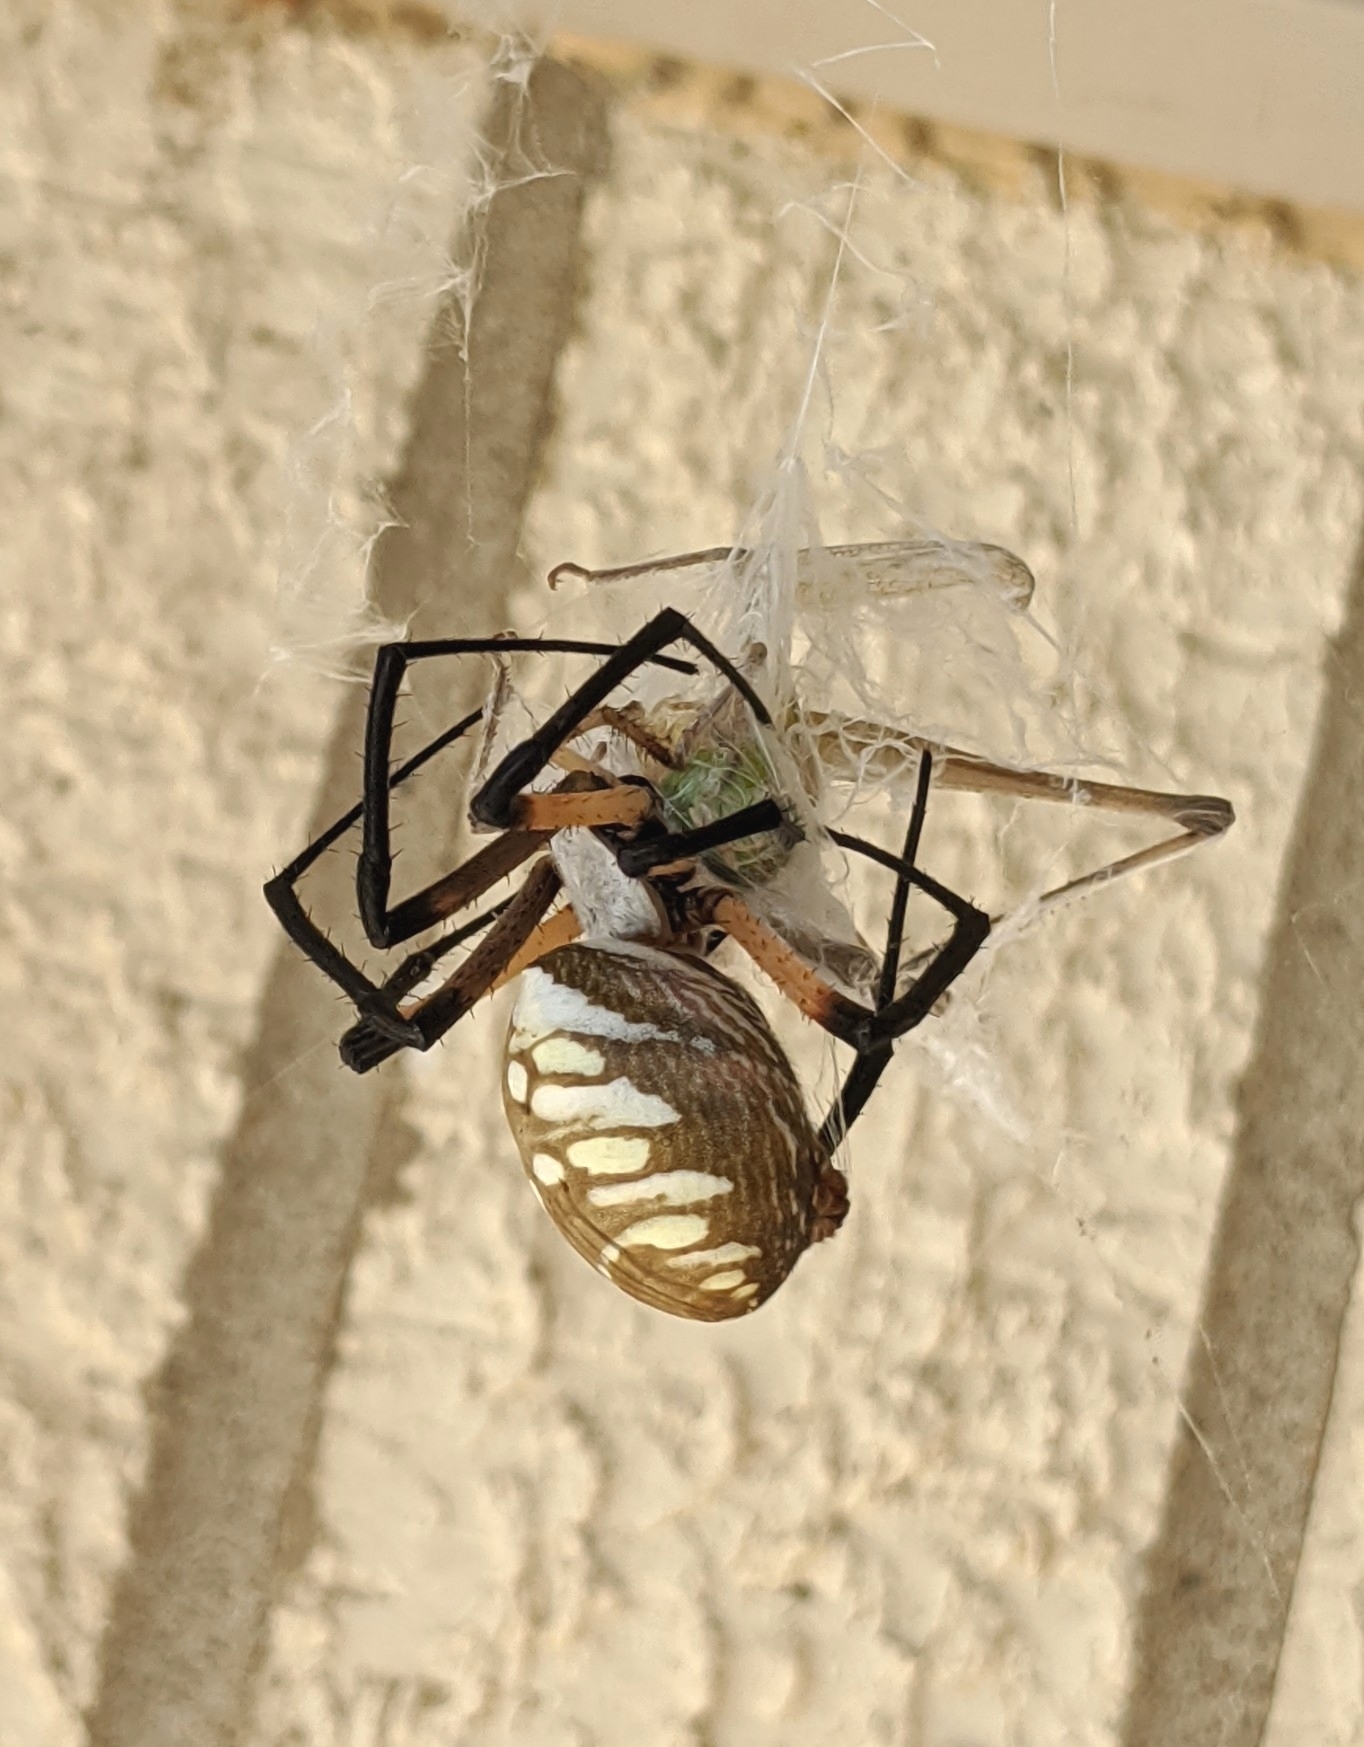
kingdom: Animalia
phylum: Arthropoda
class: Arachnida
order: Araneae
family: Araneidae
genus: Argiope
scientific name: Argiope aurantia
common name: Orb weavers
